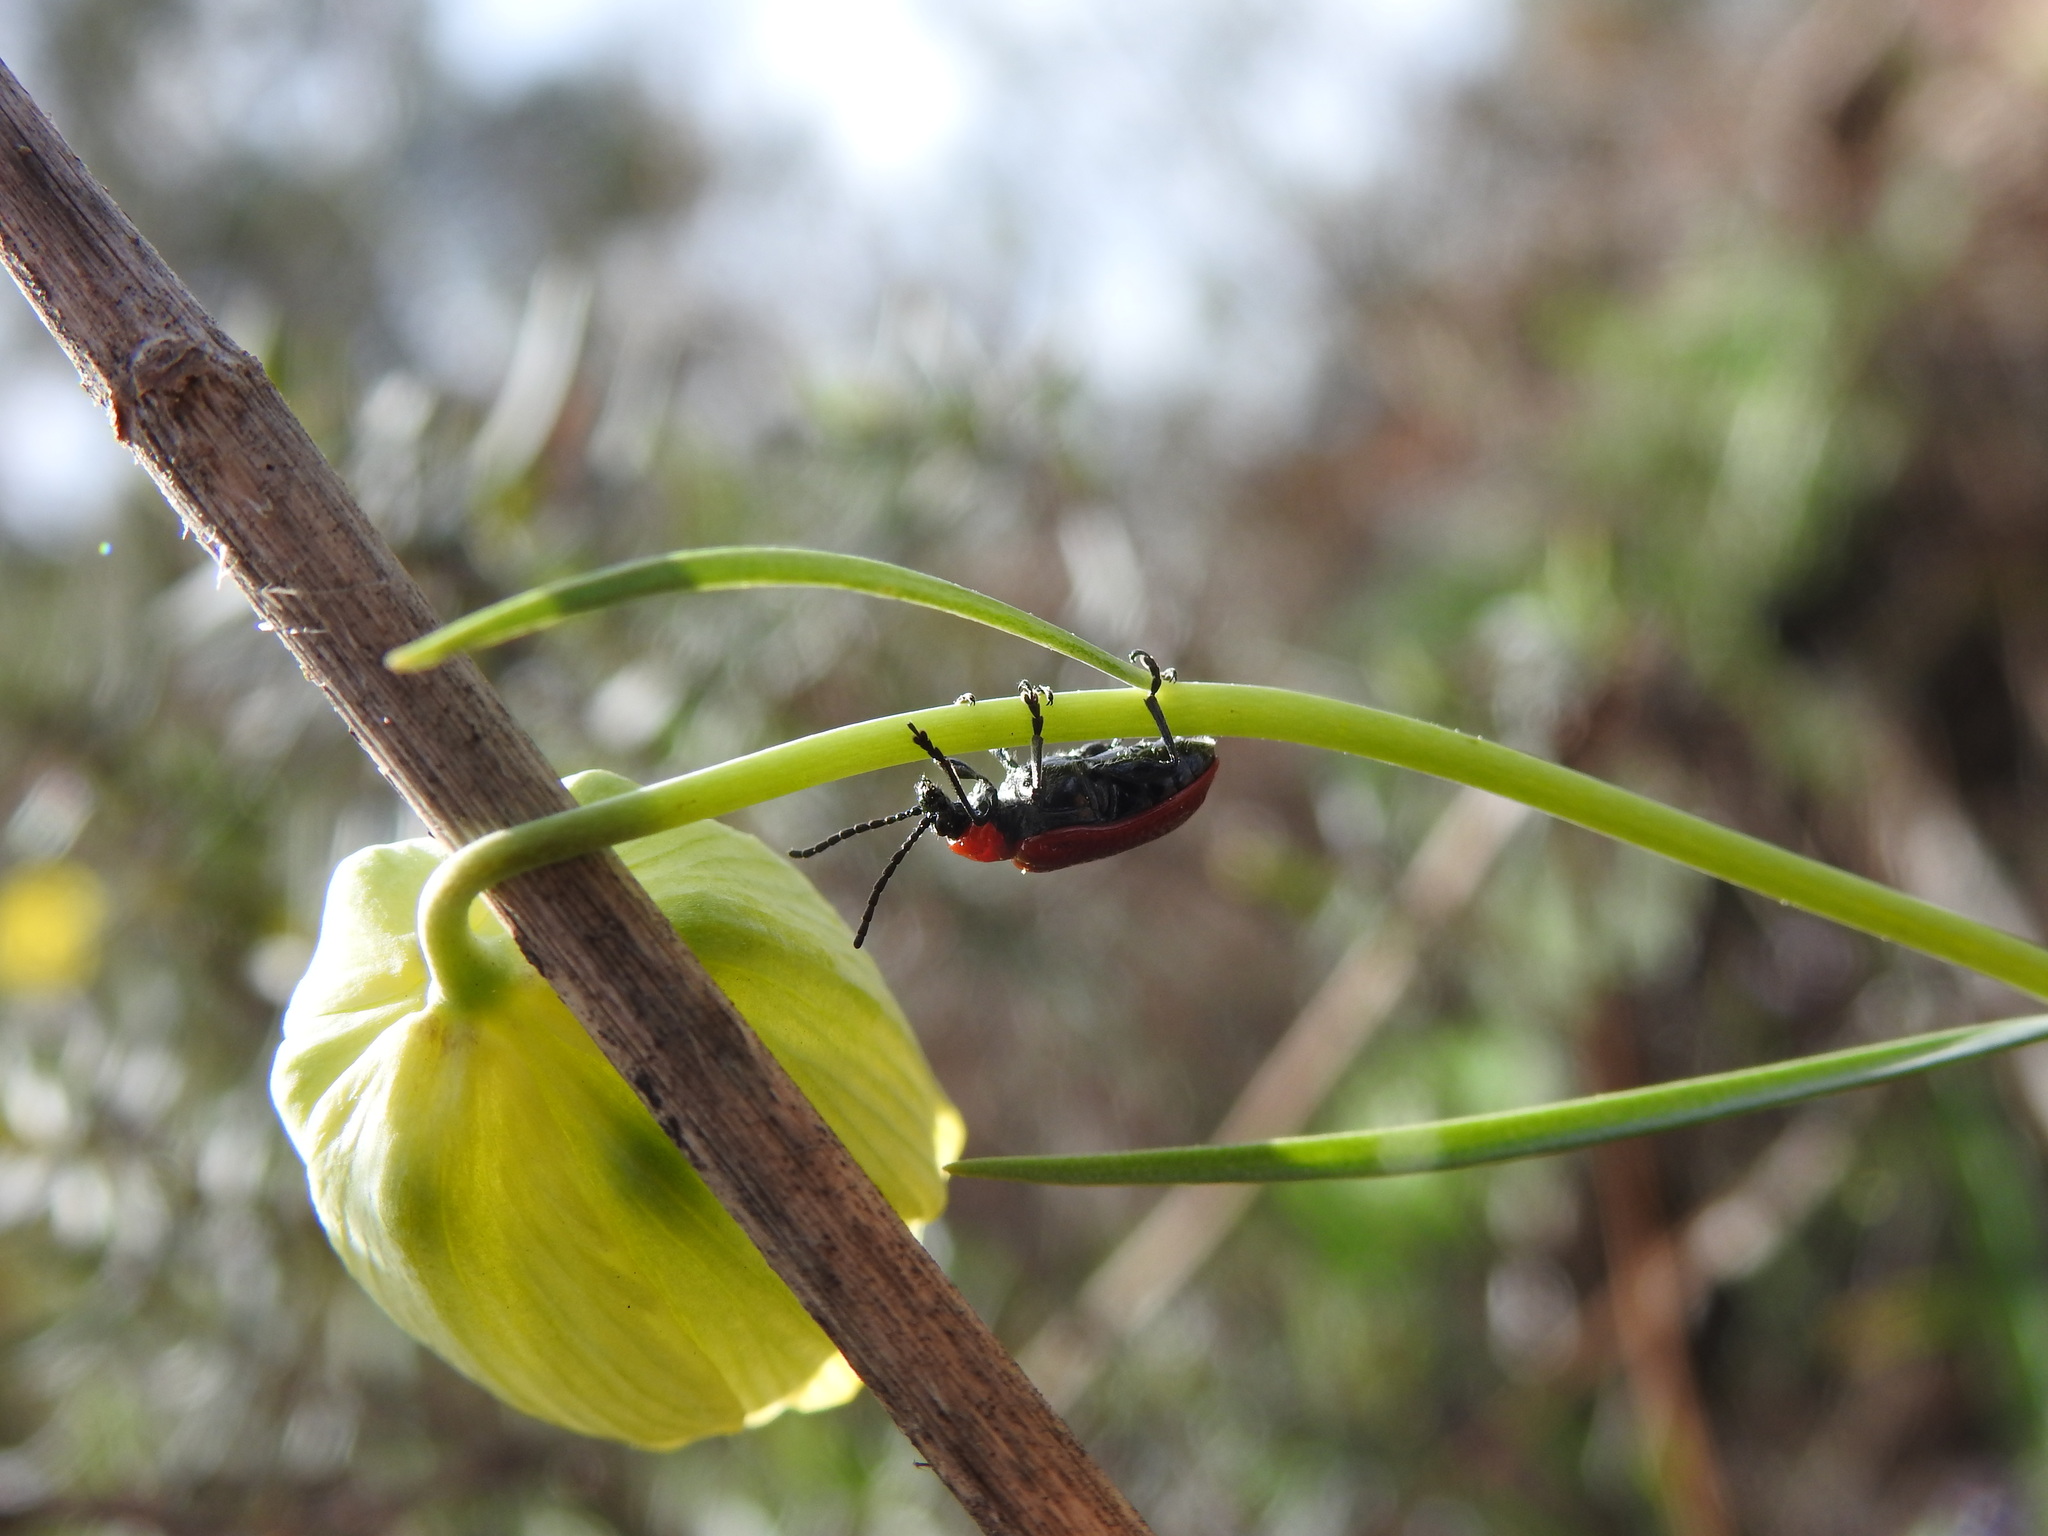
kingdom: Animalia
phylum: Arthropoda
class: Insecta
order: Coleoptera
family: Chrysomelidae
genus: Lilioceris
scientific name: Lilioceris lilii
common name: Lily beetle
